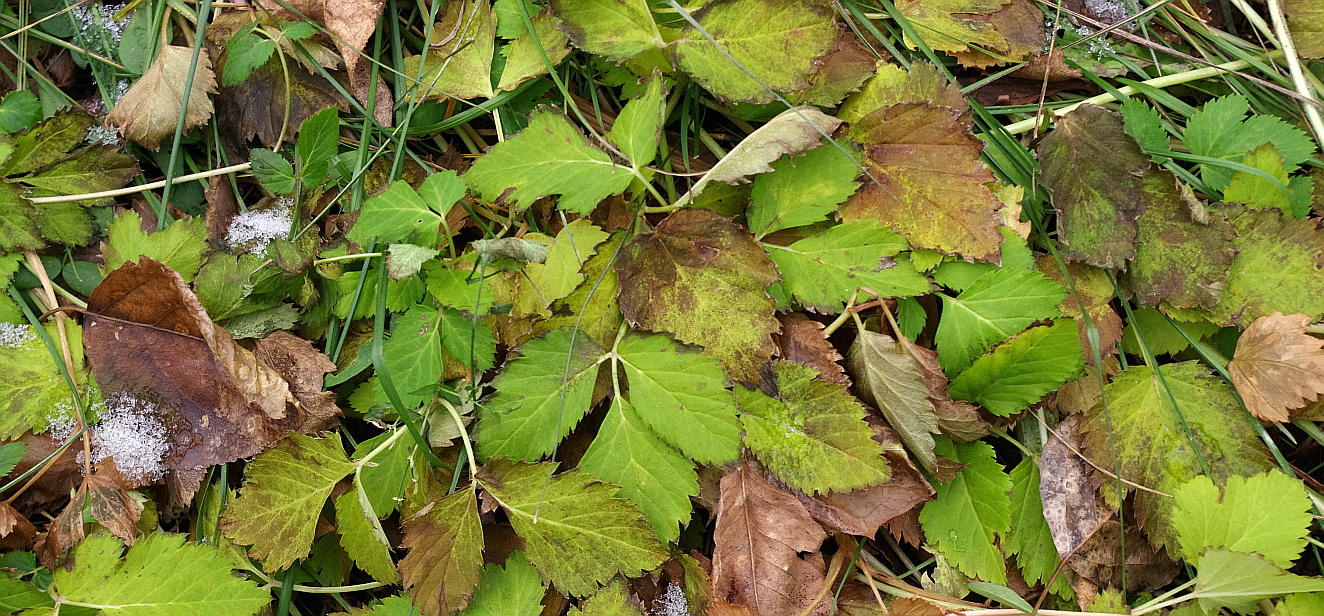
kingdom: Plantae
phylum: Tracheophyta
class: Magnoliopsida
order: Apiales
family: Apiaceae
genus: Aegopodium
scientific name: Aegopodium podagraria
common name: Ground-elder
